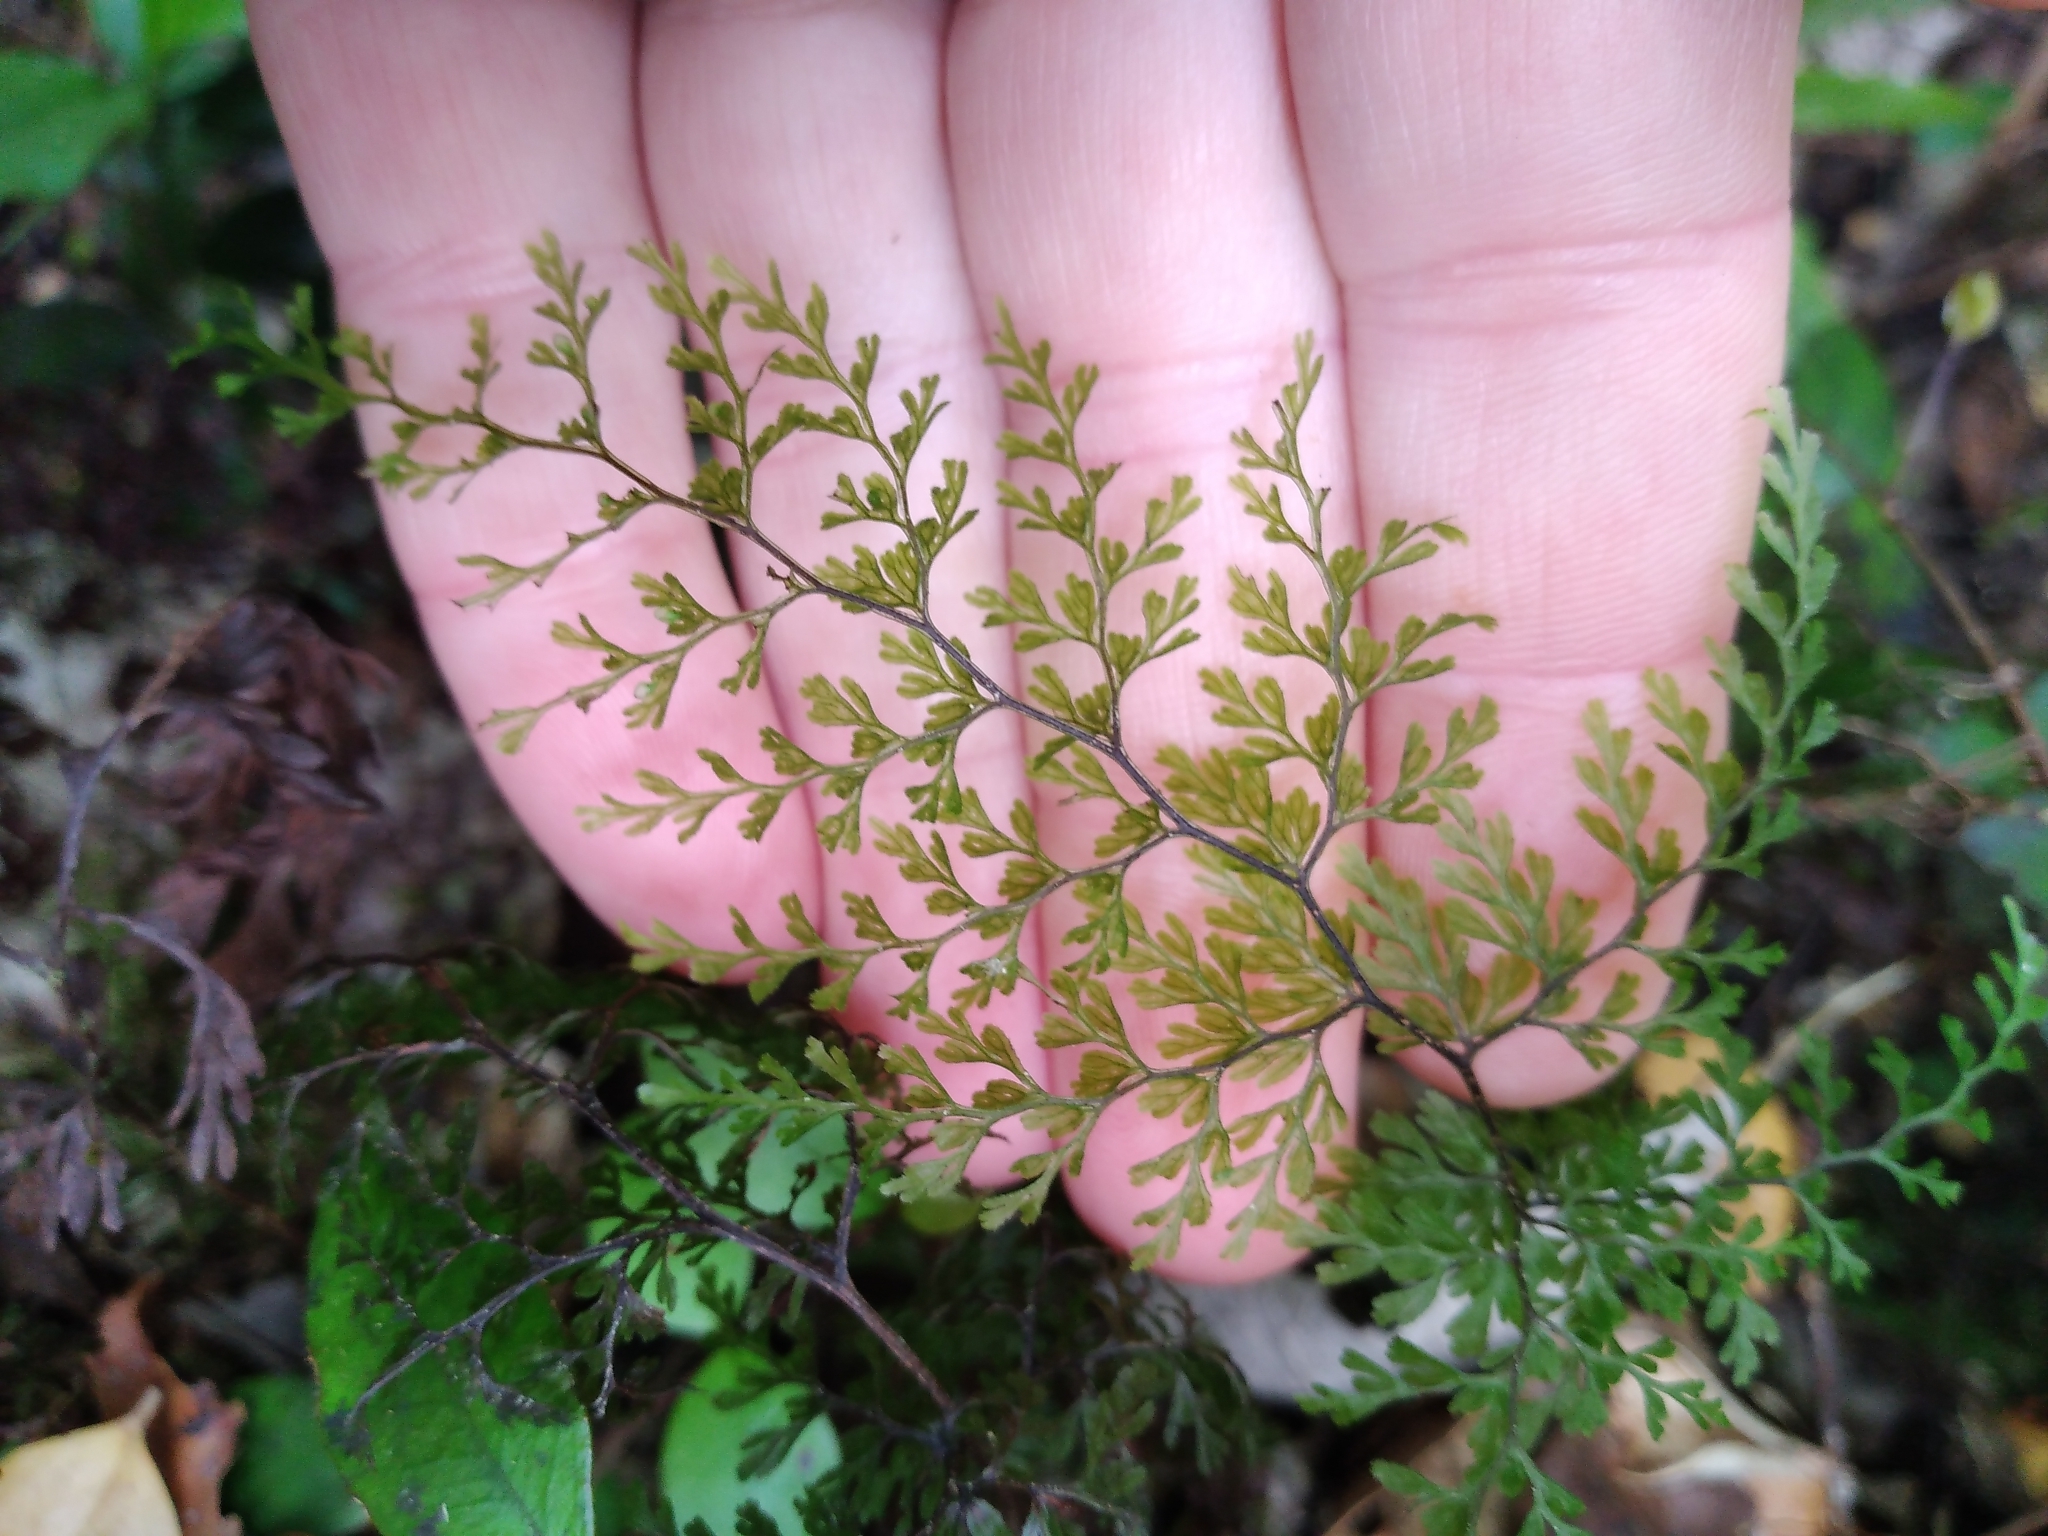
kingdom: Plantae
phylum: Tracheophyta
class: Polypodiopsida
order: Hymenophyllales
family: Hymenophyllaceae
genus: Hymenophyllum
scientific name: Hymenophyllum bivalve
